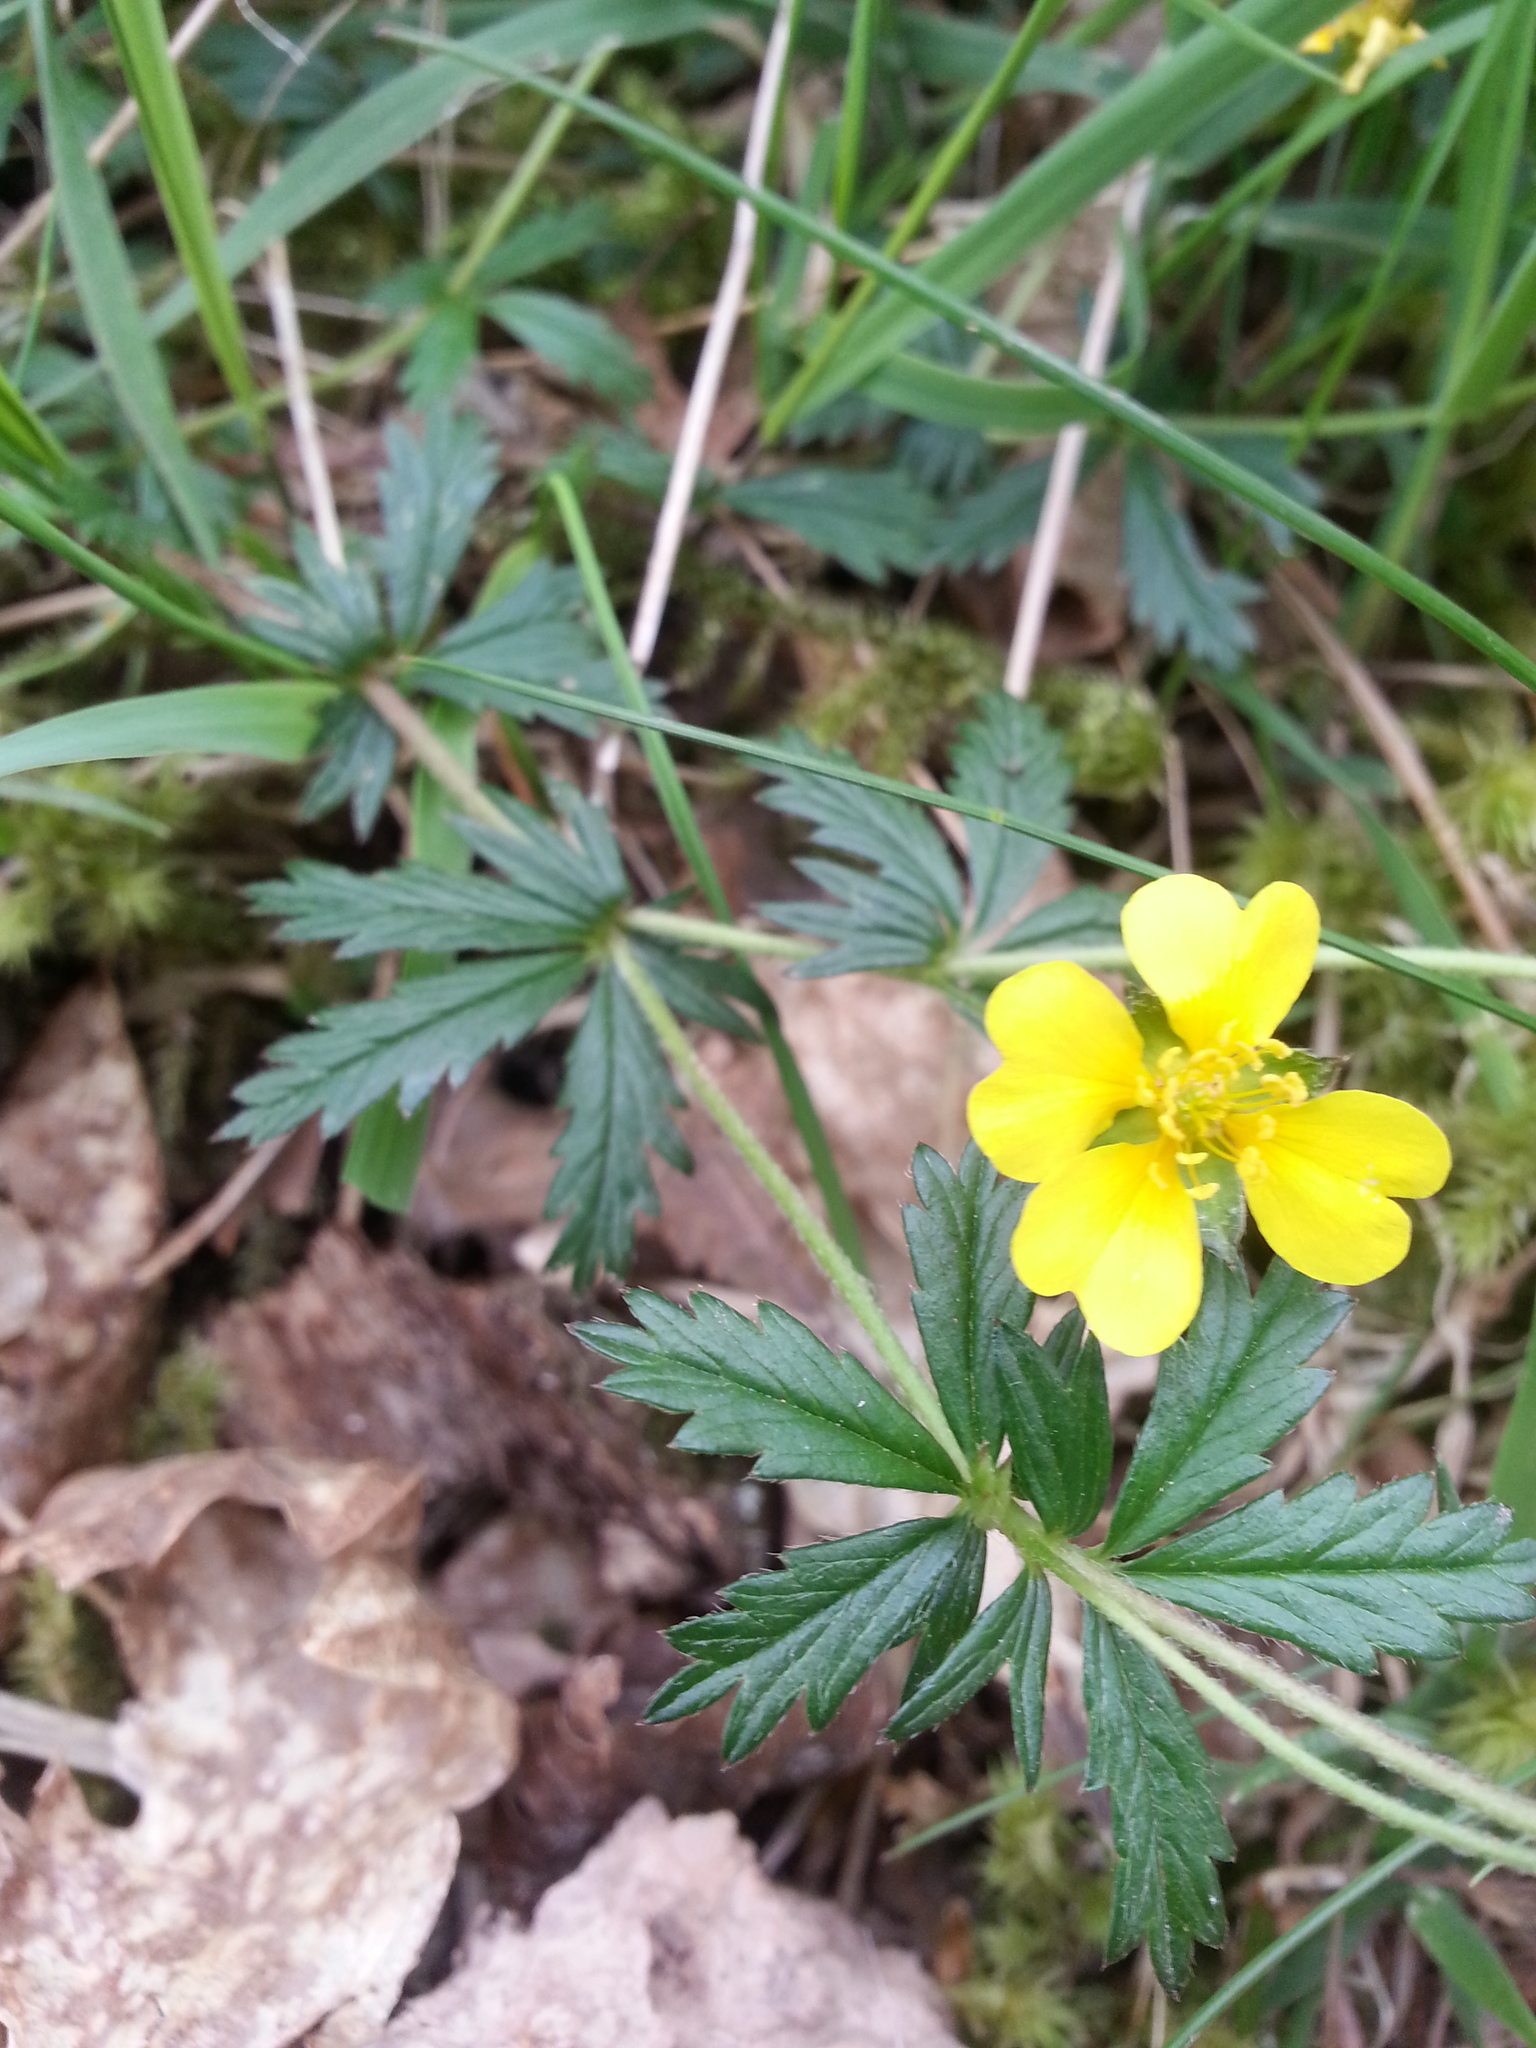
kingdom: Plantae
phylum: Tracheophyta
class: Magnoliopsida
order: Rosales
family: Rosaceae
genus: Potentilla
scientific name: Potentilla erecta
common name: Tormentil
